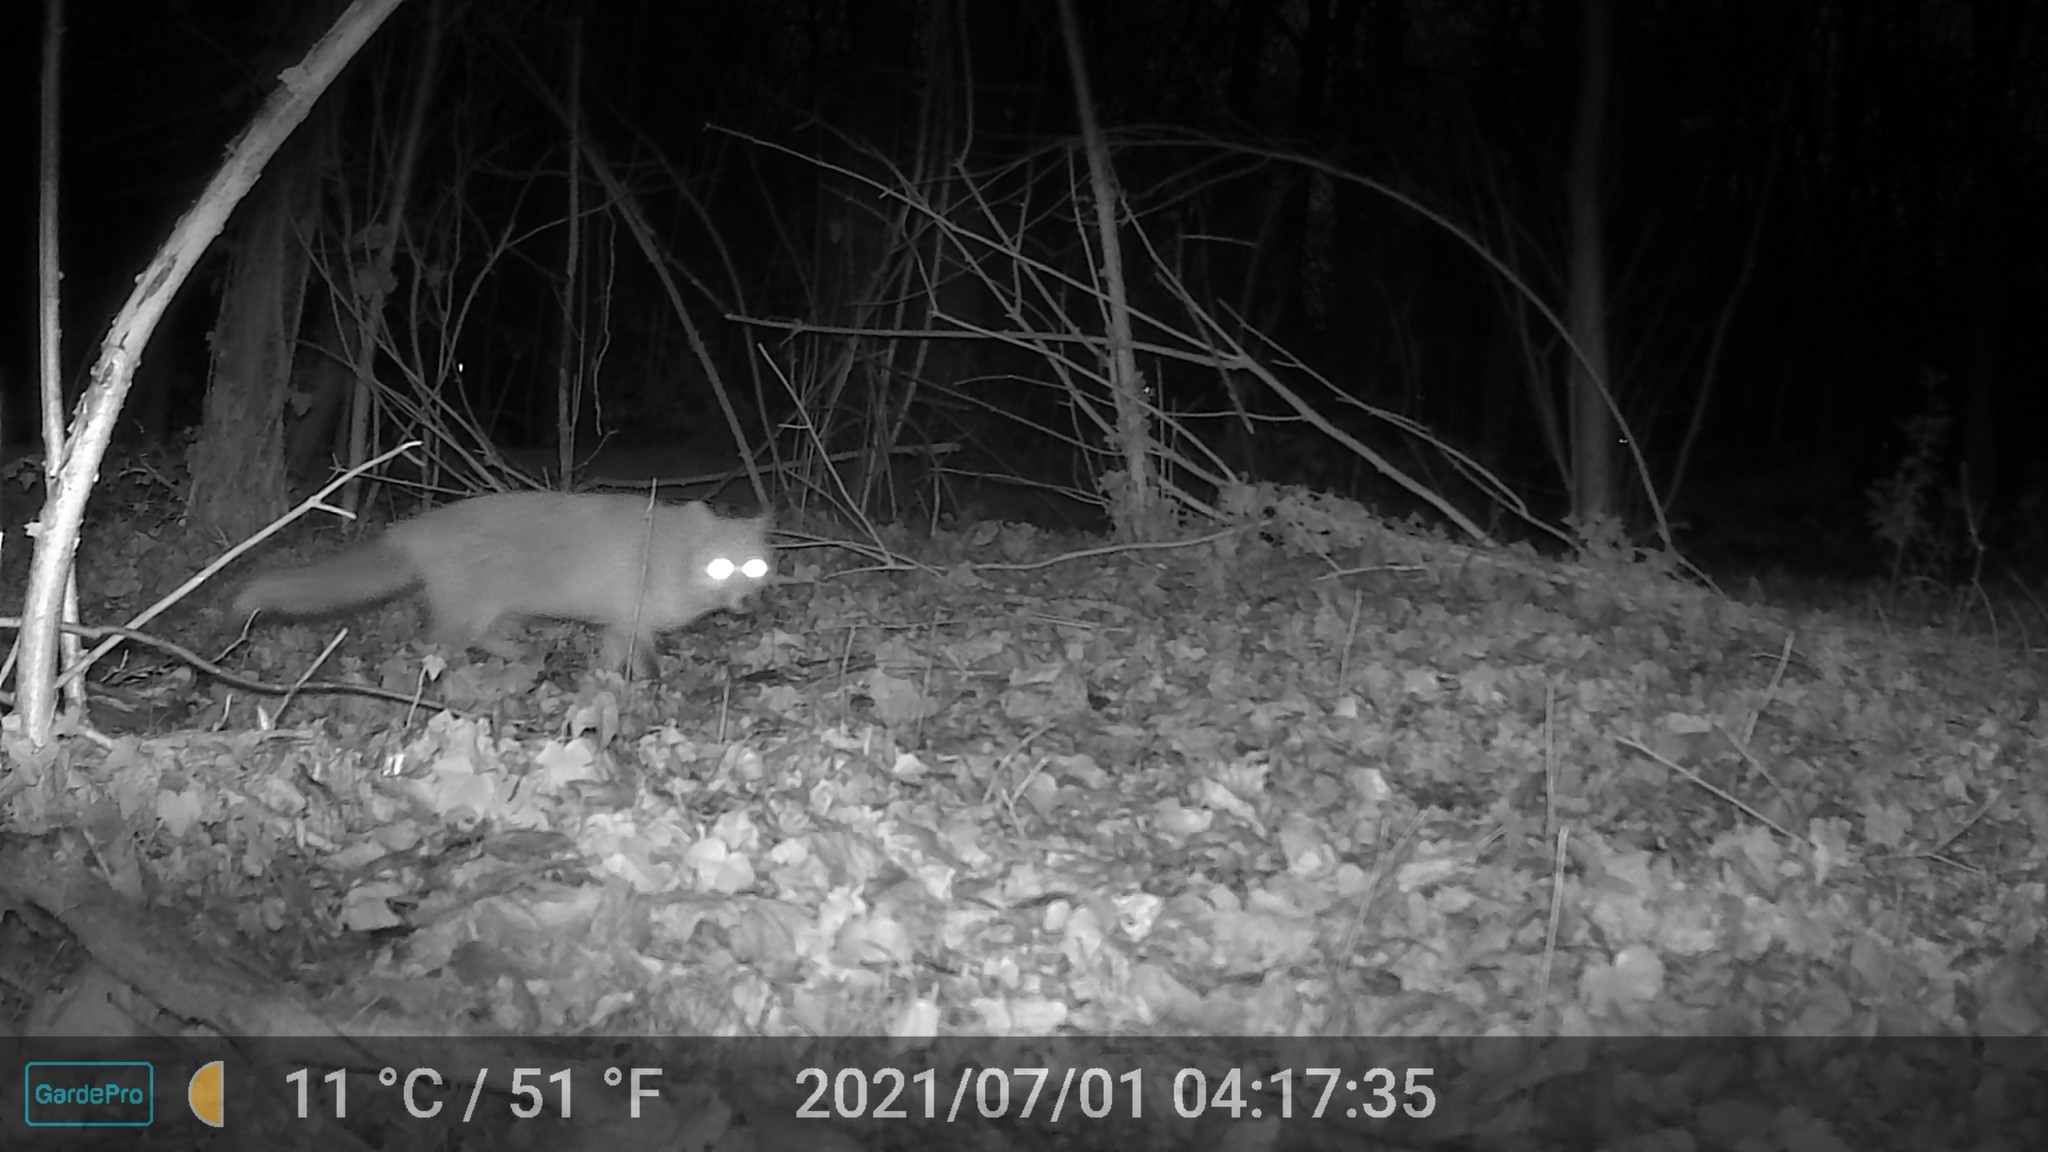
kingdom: Animalia
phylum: Chordata
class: Mammalia
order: Carnivora
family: Canidae
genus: Vulpes
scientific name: Vulpes vulpes
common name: Red fox
